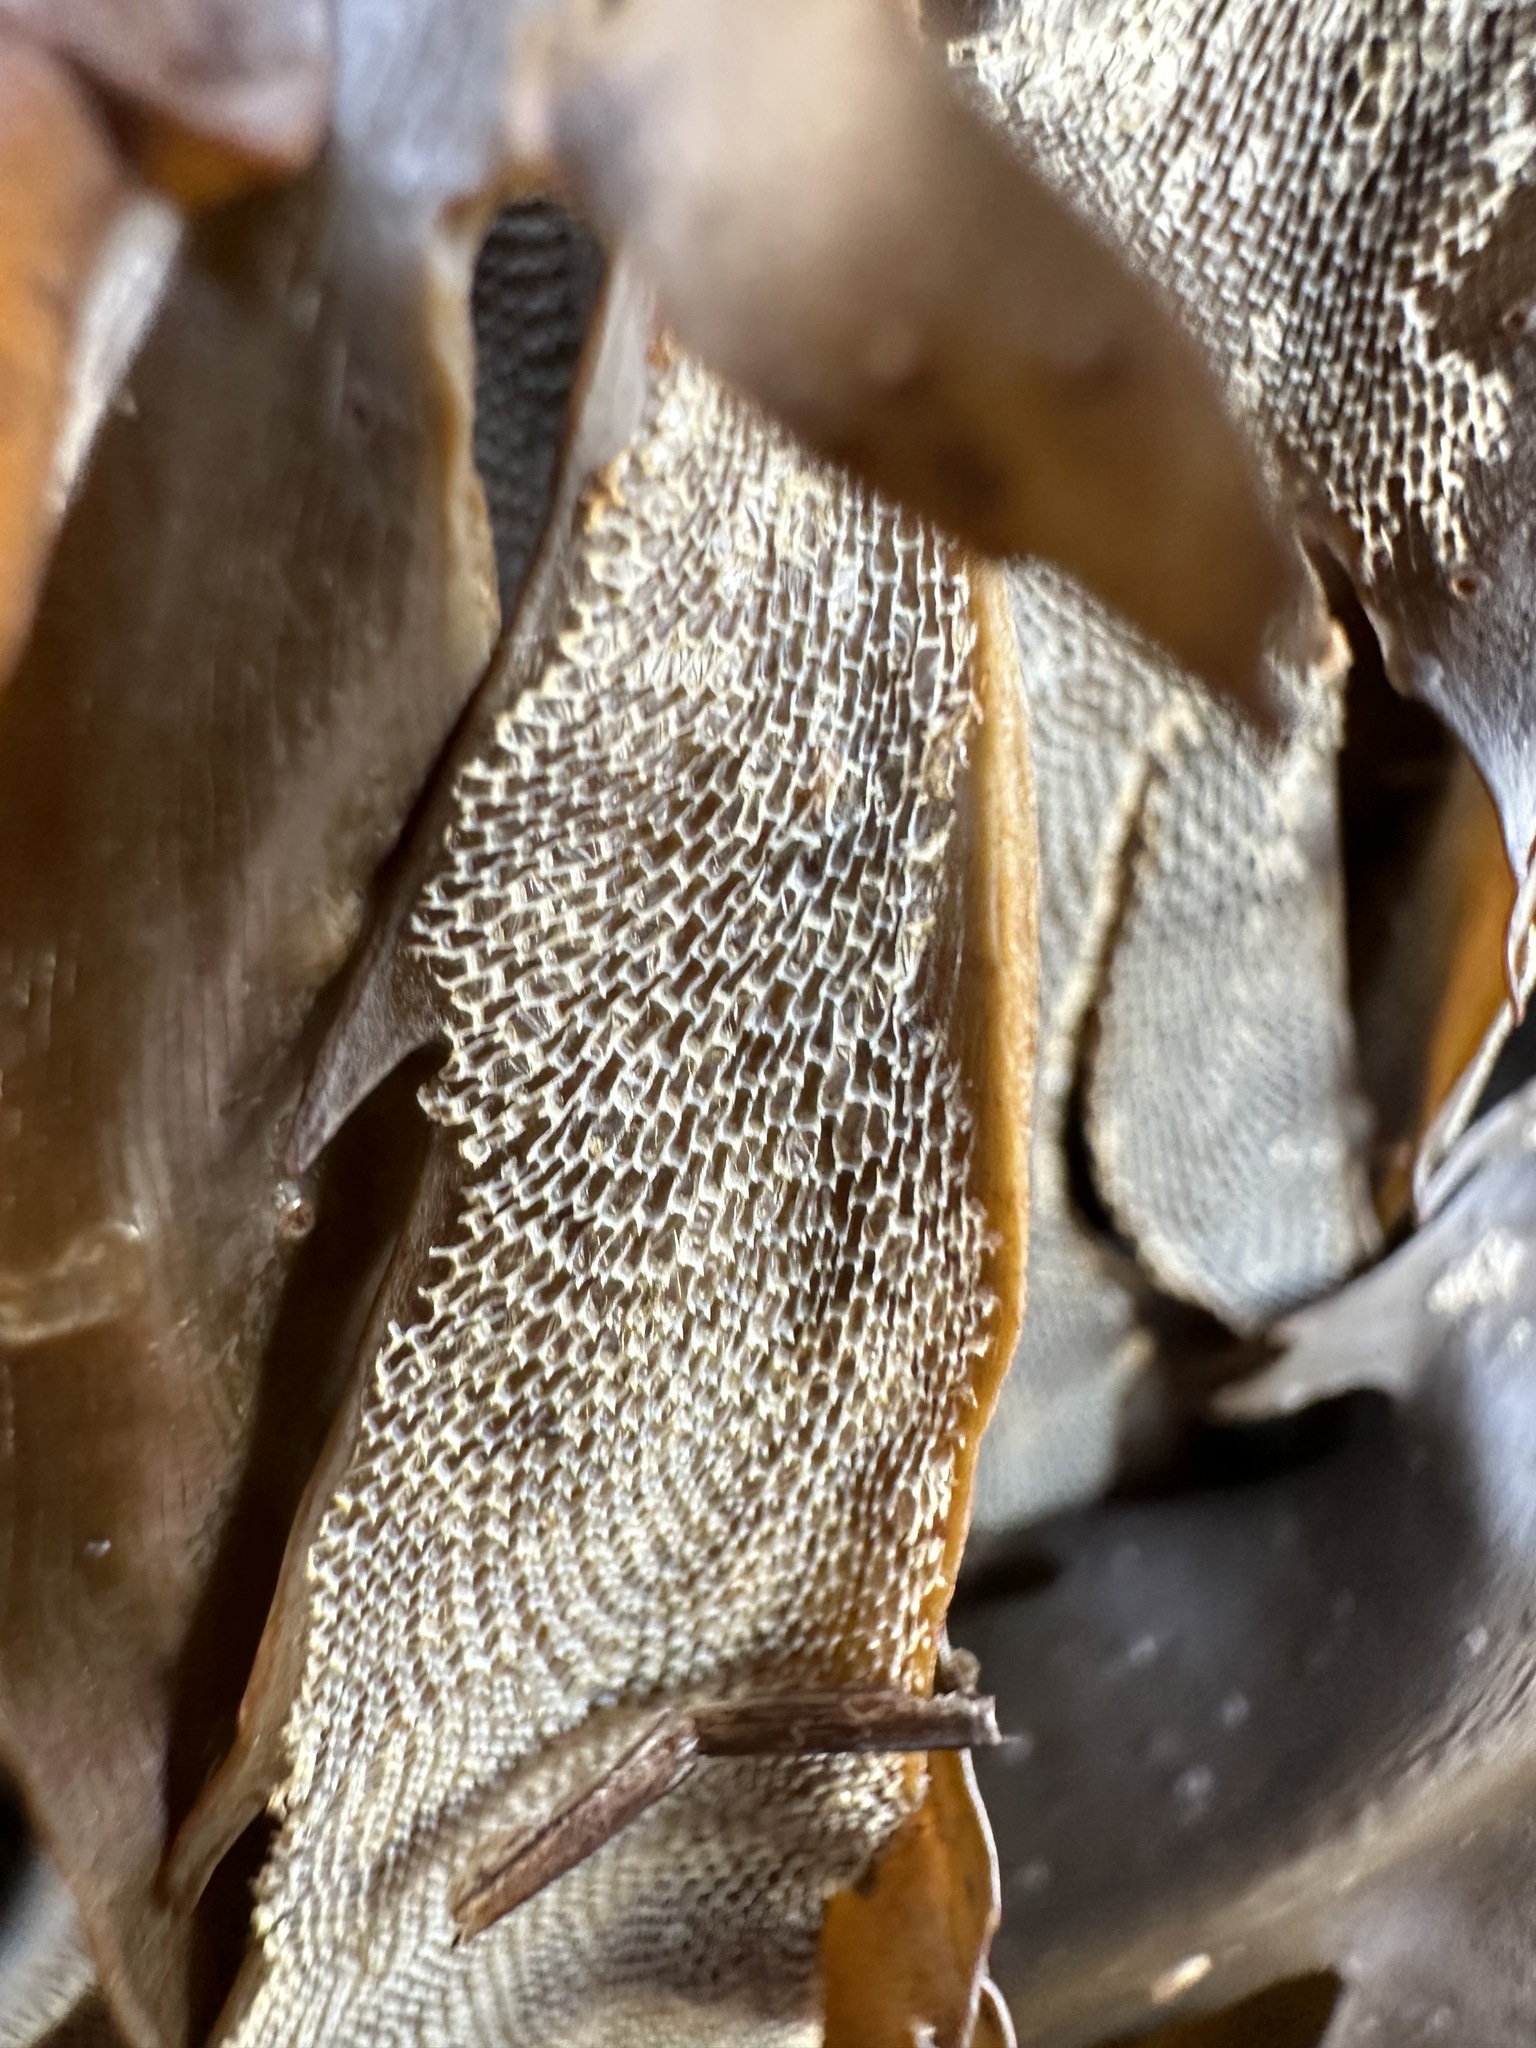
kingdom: Animalia
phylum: Bryozoa
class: Gymnolaemata
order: Cheilostomatida
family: Membraniporidae
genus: Membranipora
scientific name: Membranipora membranacea
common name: Sea mat
